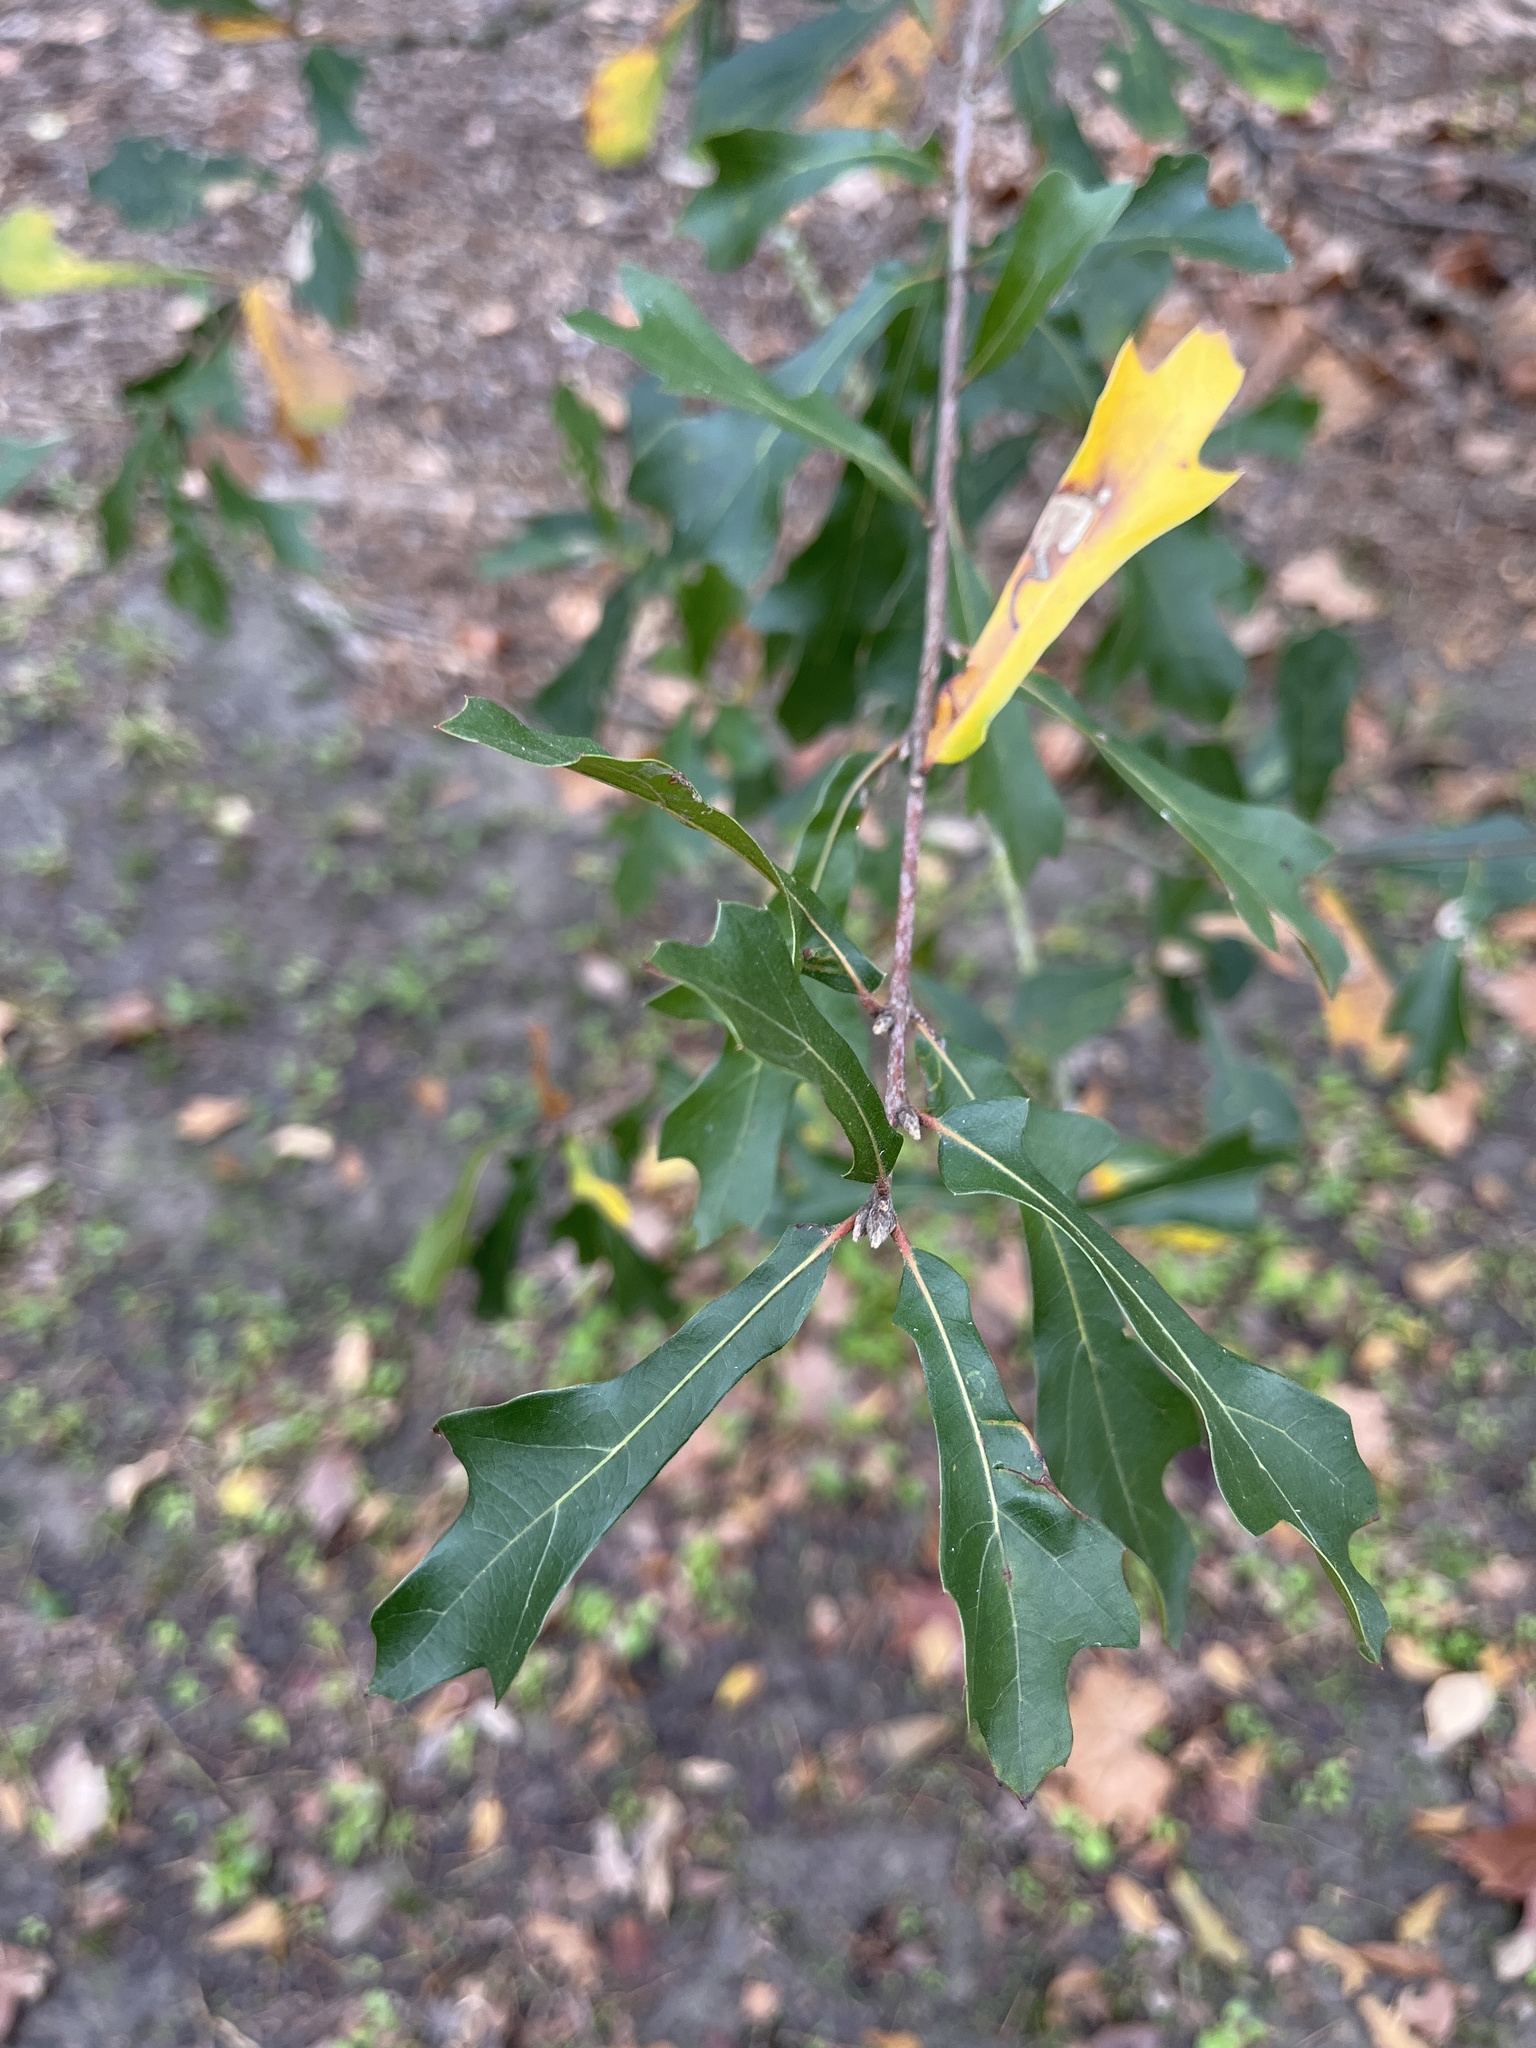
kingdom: Plantae
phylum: Tracheophyta
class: Magnoliopsida
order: Fagales
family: Fagaceae
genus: Quercus
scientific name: Quercus nigra
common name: Water oak
